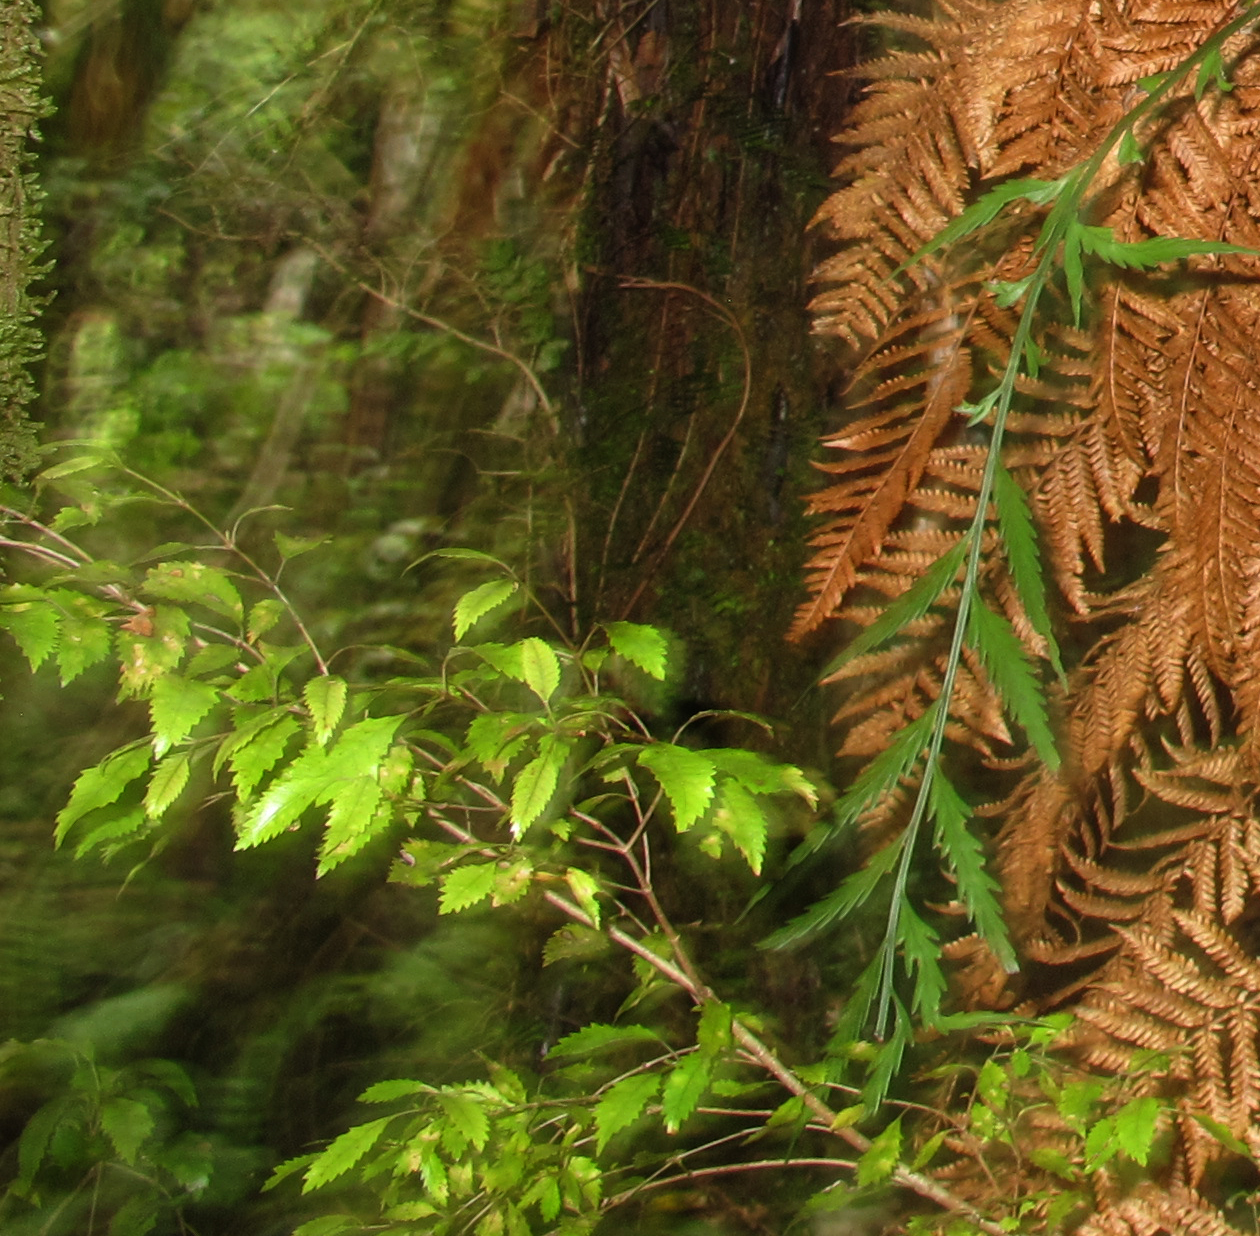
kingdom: Plantae
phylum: Tracheophyta
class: Magnoliopsida
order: Oxalidales
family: Cunoniaceae
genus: Pterophylla
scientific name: Pterophylla racemosa
